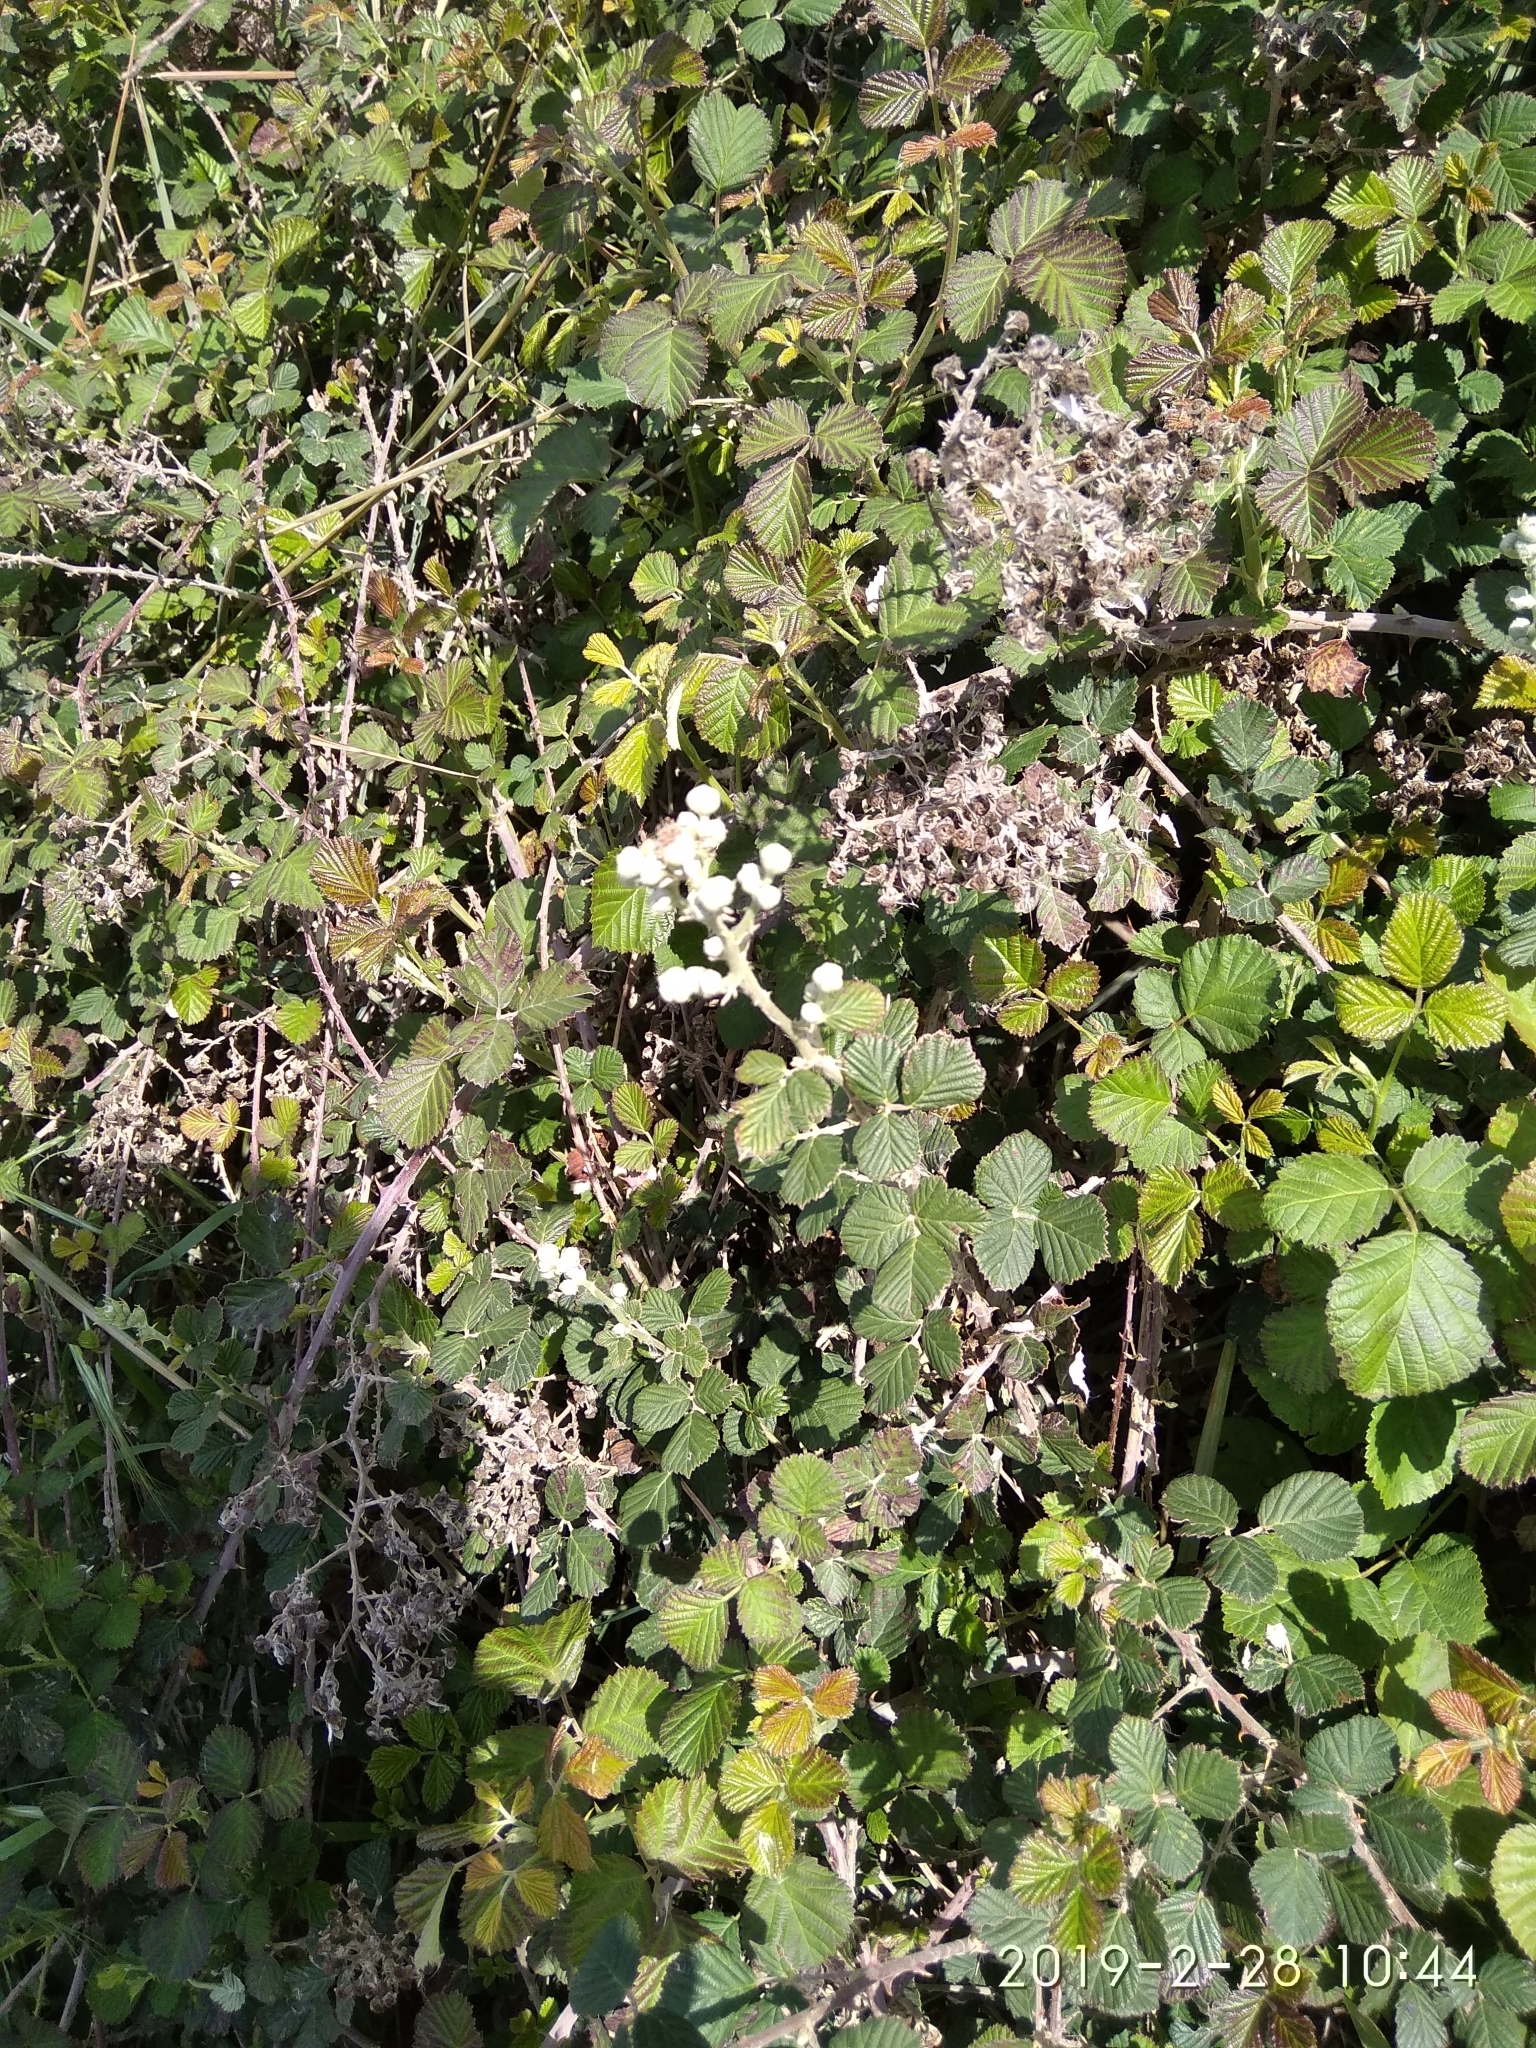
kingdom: Plantae
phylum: Tracheophyta
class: Magnoliopsida
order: Rosales
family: Rosaceae
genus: Rubus
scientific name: Rubus sanctus
